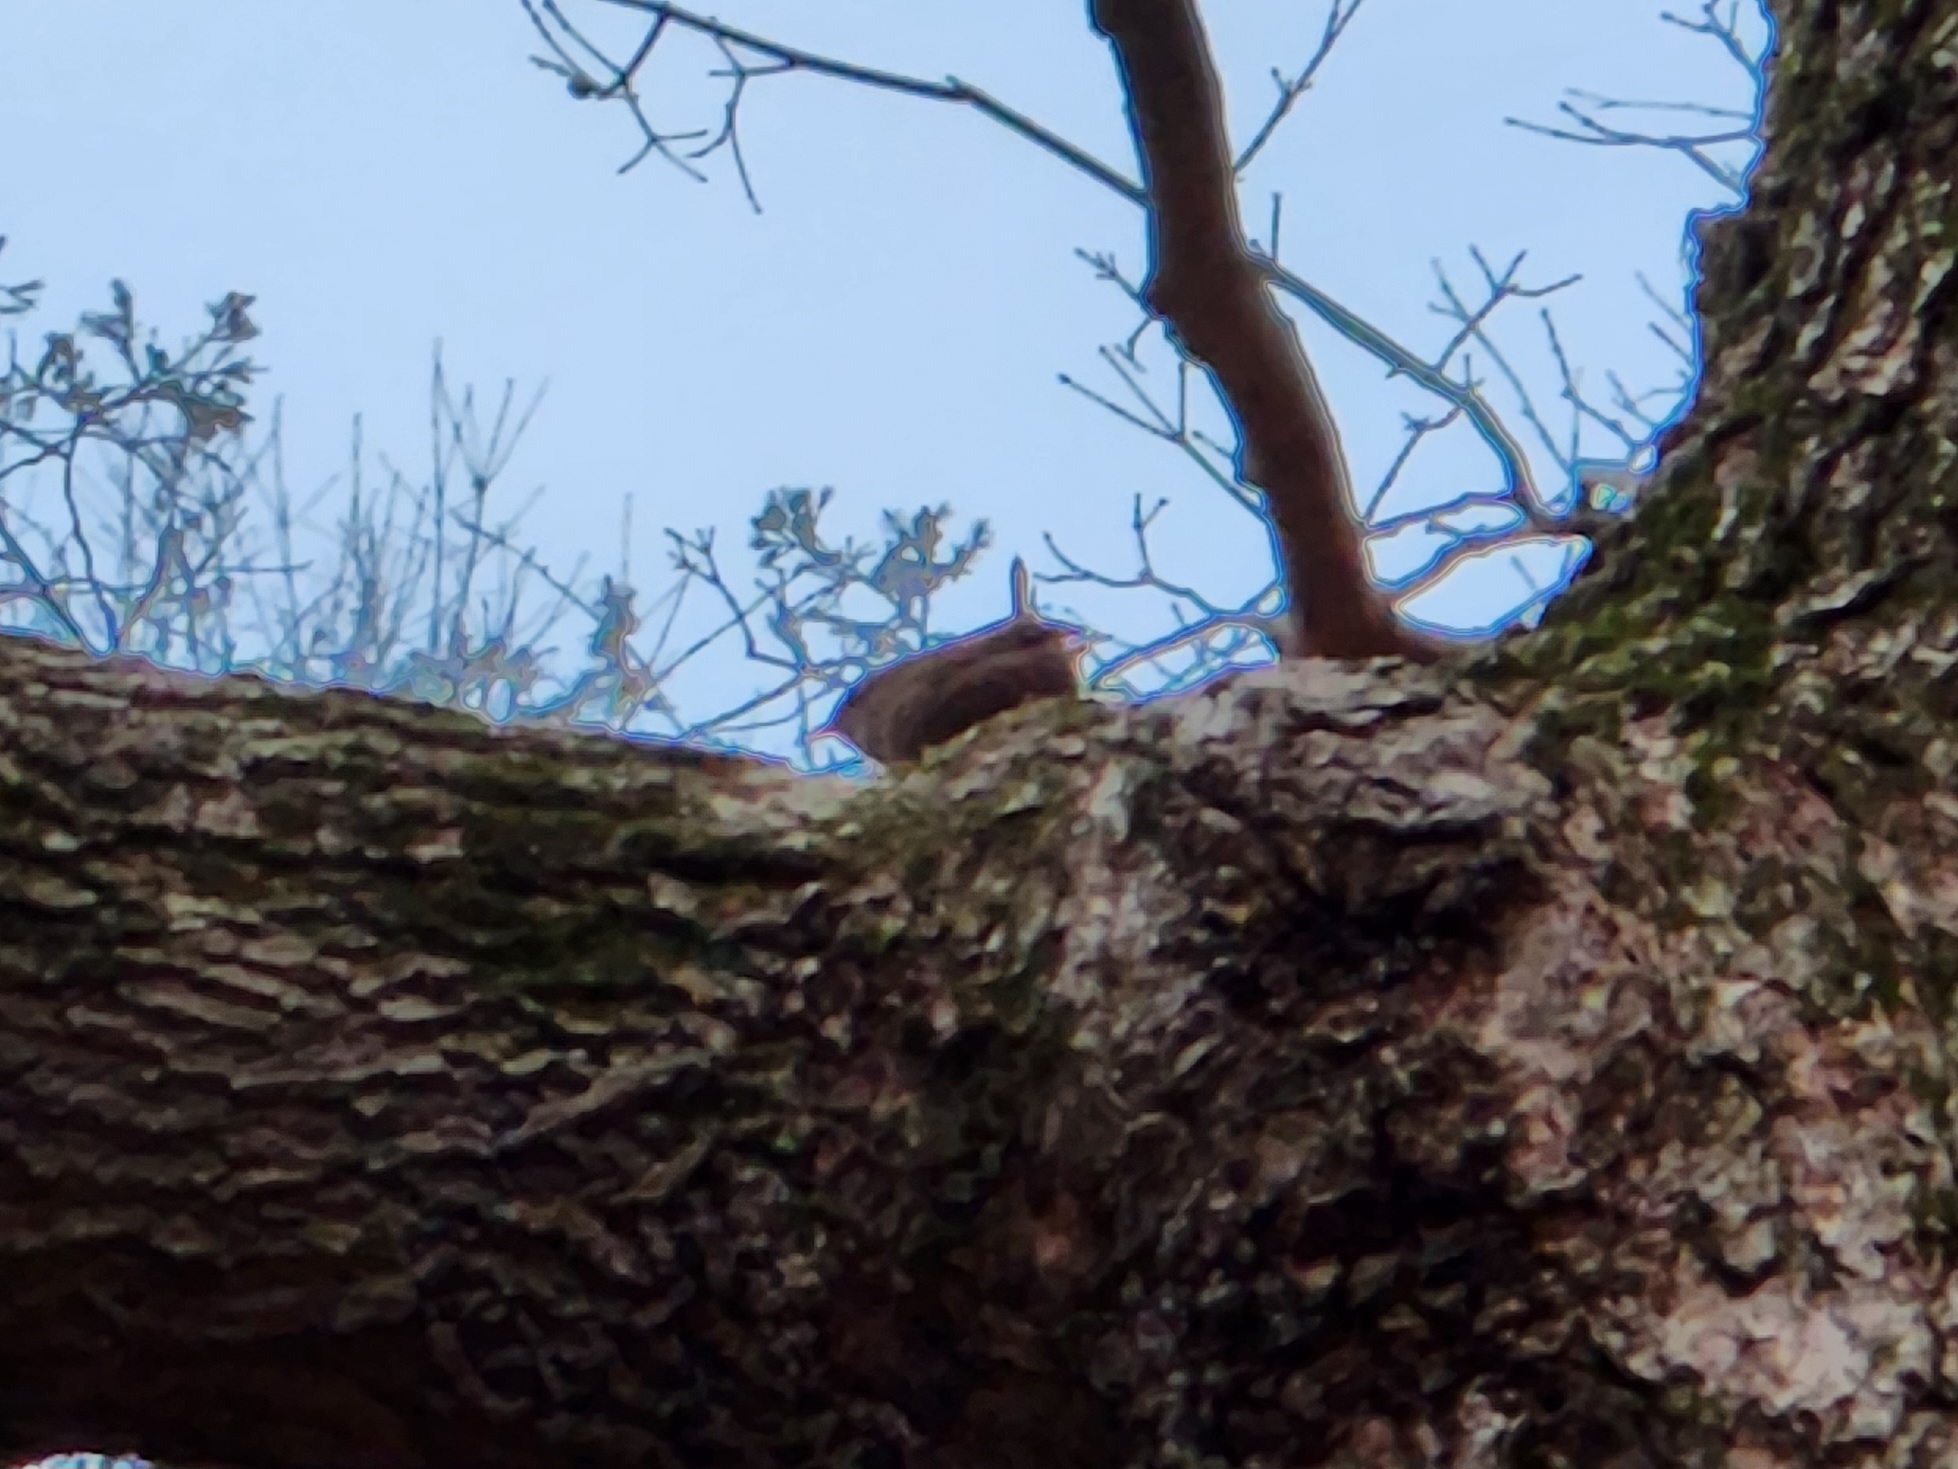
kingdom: Animalia
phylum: Chordata
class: Aves
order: Passeriformes
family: Troglodytidae
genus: Troglodytes
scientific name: Troglodytes hiemalis
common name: Winter wren
